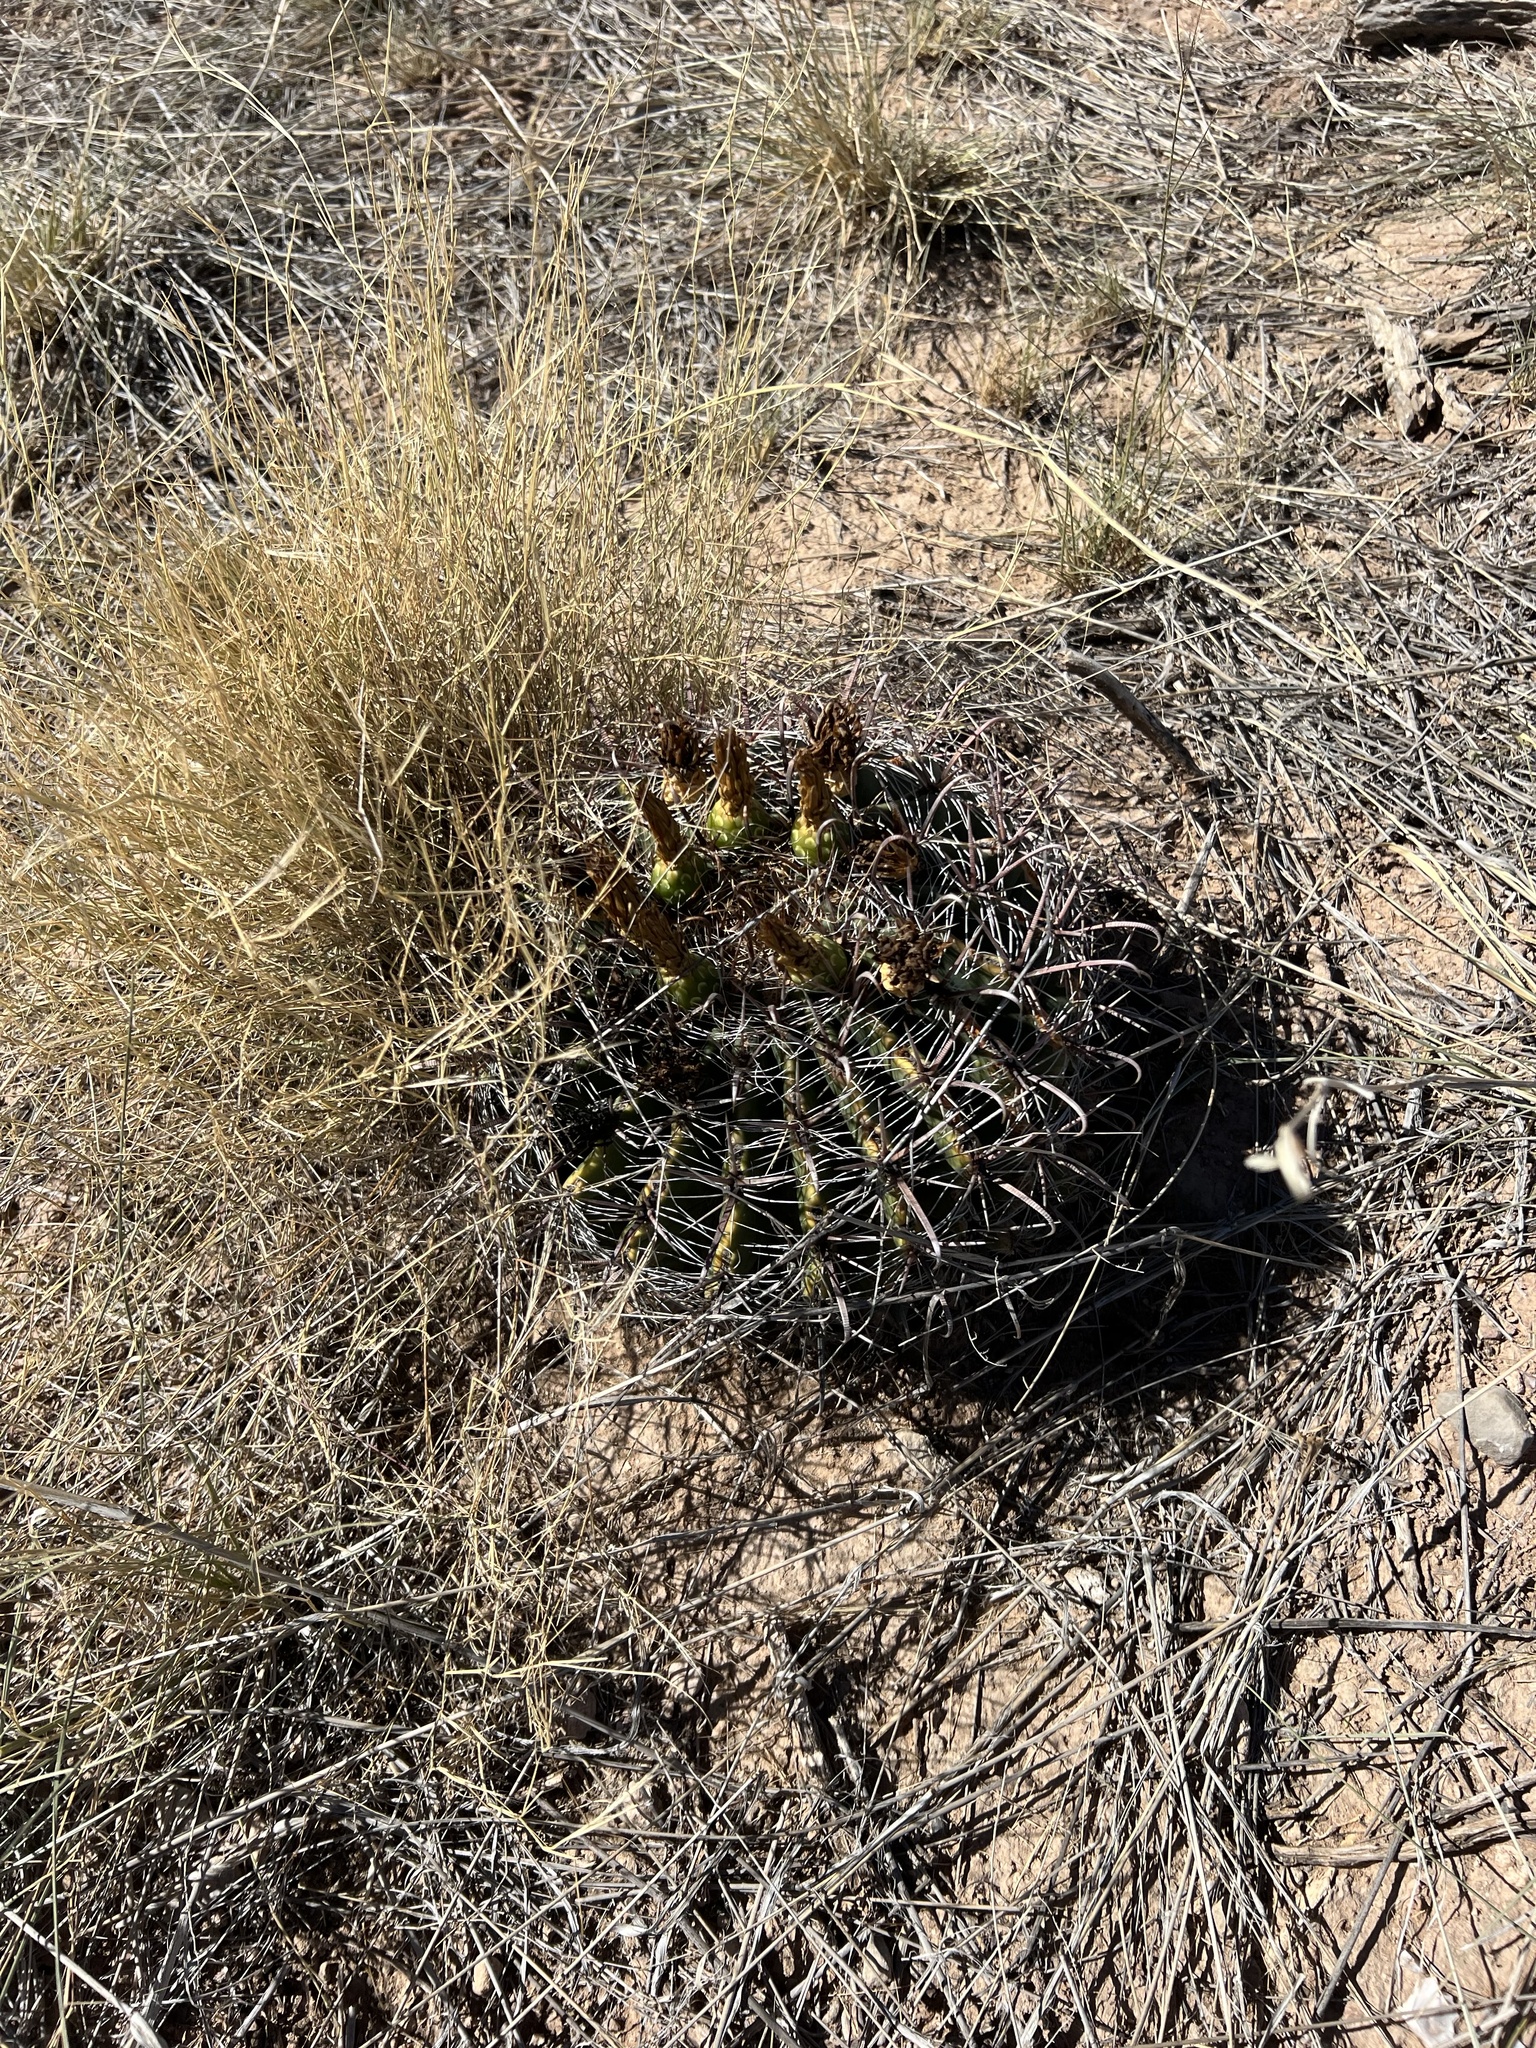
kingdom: Plantae
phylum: Tracheophyta
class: Magnoliopsida
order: Caryophyllales
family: Cactaceae
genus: Ferocactus
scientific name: Ferocactus wislizeni
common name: Candy barrel cactus
